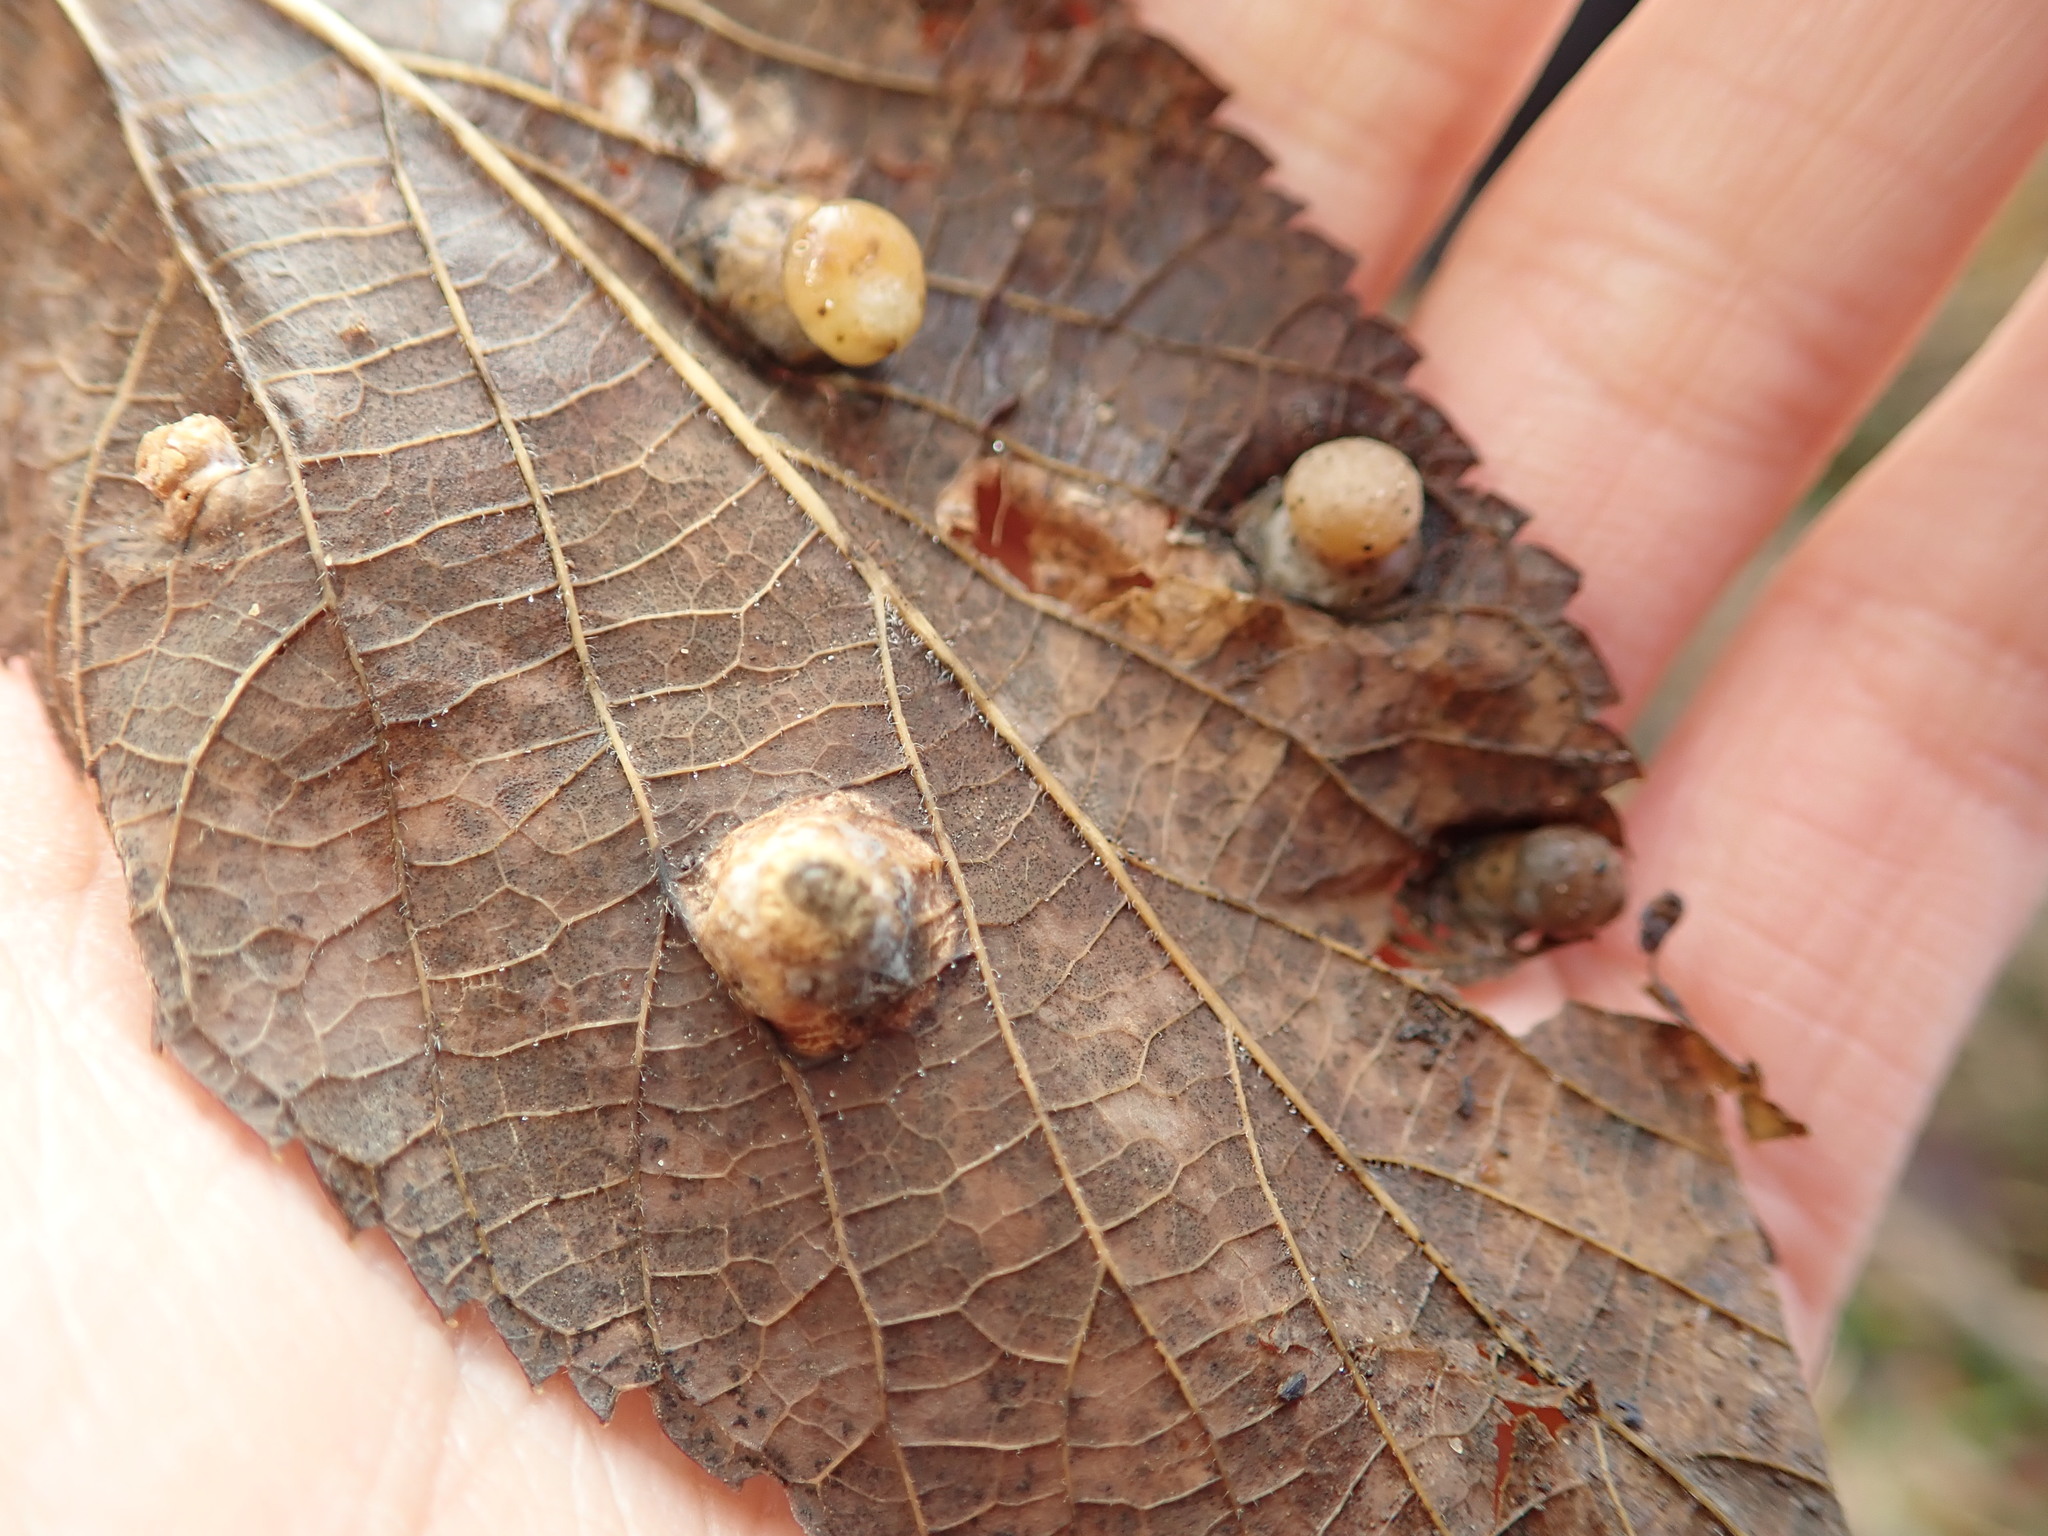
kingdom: Animalia
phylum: Arthropoda
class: Insecta
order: Hemiptera
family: Aphalaridae
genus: Pachypsylla
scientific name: Pachypsylla celtidismamma
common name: Hackberry nipplegall psyllid
